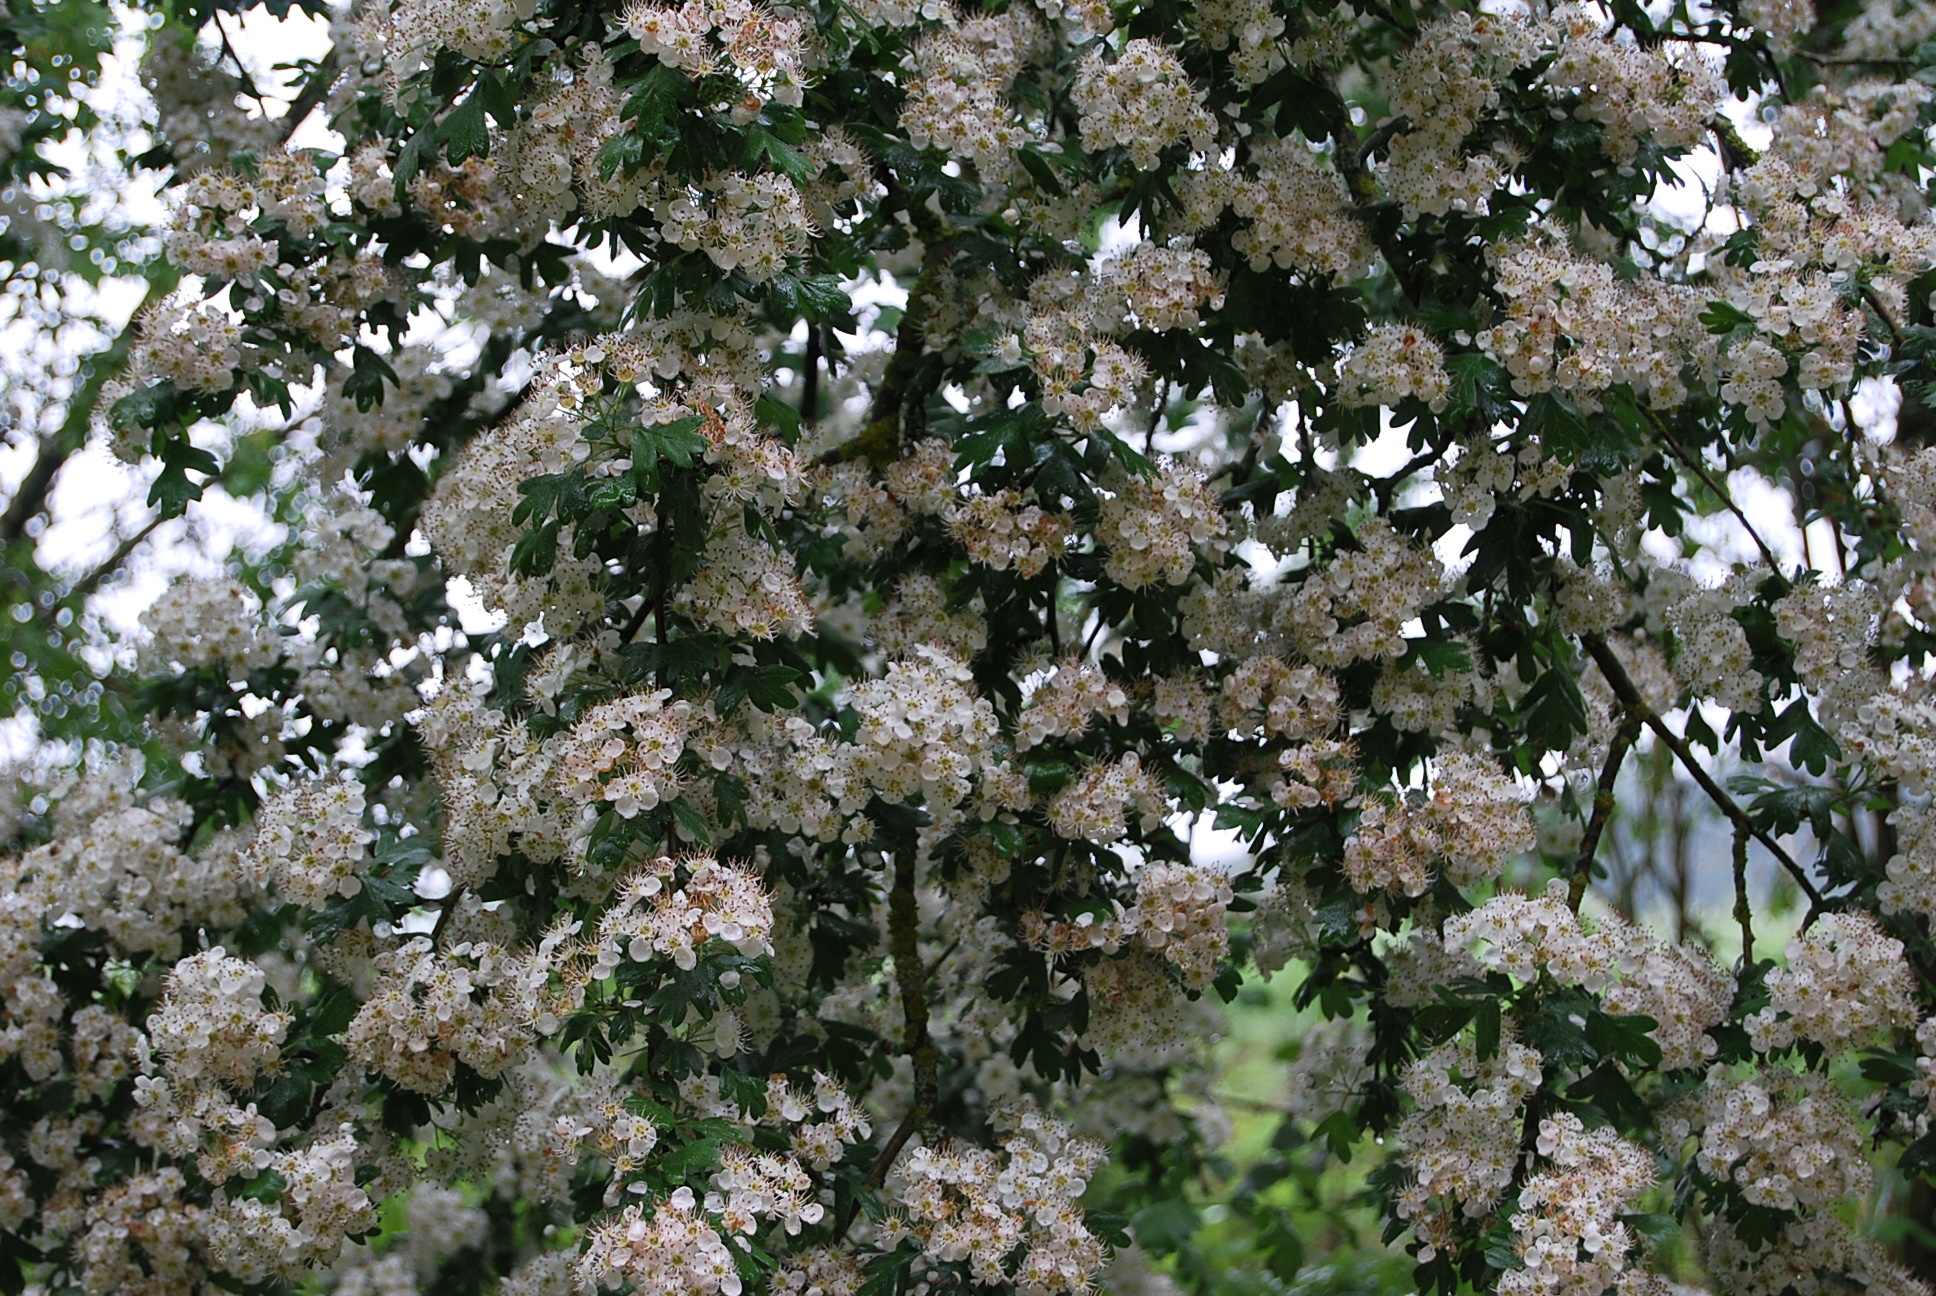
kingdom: Plantae
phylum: Tracheophyta
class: Magnoliopsida
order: Rosales
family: Rosaceae
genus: Crataegus
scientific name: Crataegus monogyna
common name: Hawthorn
